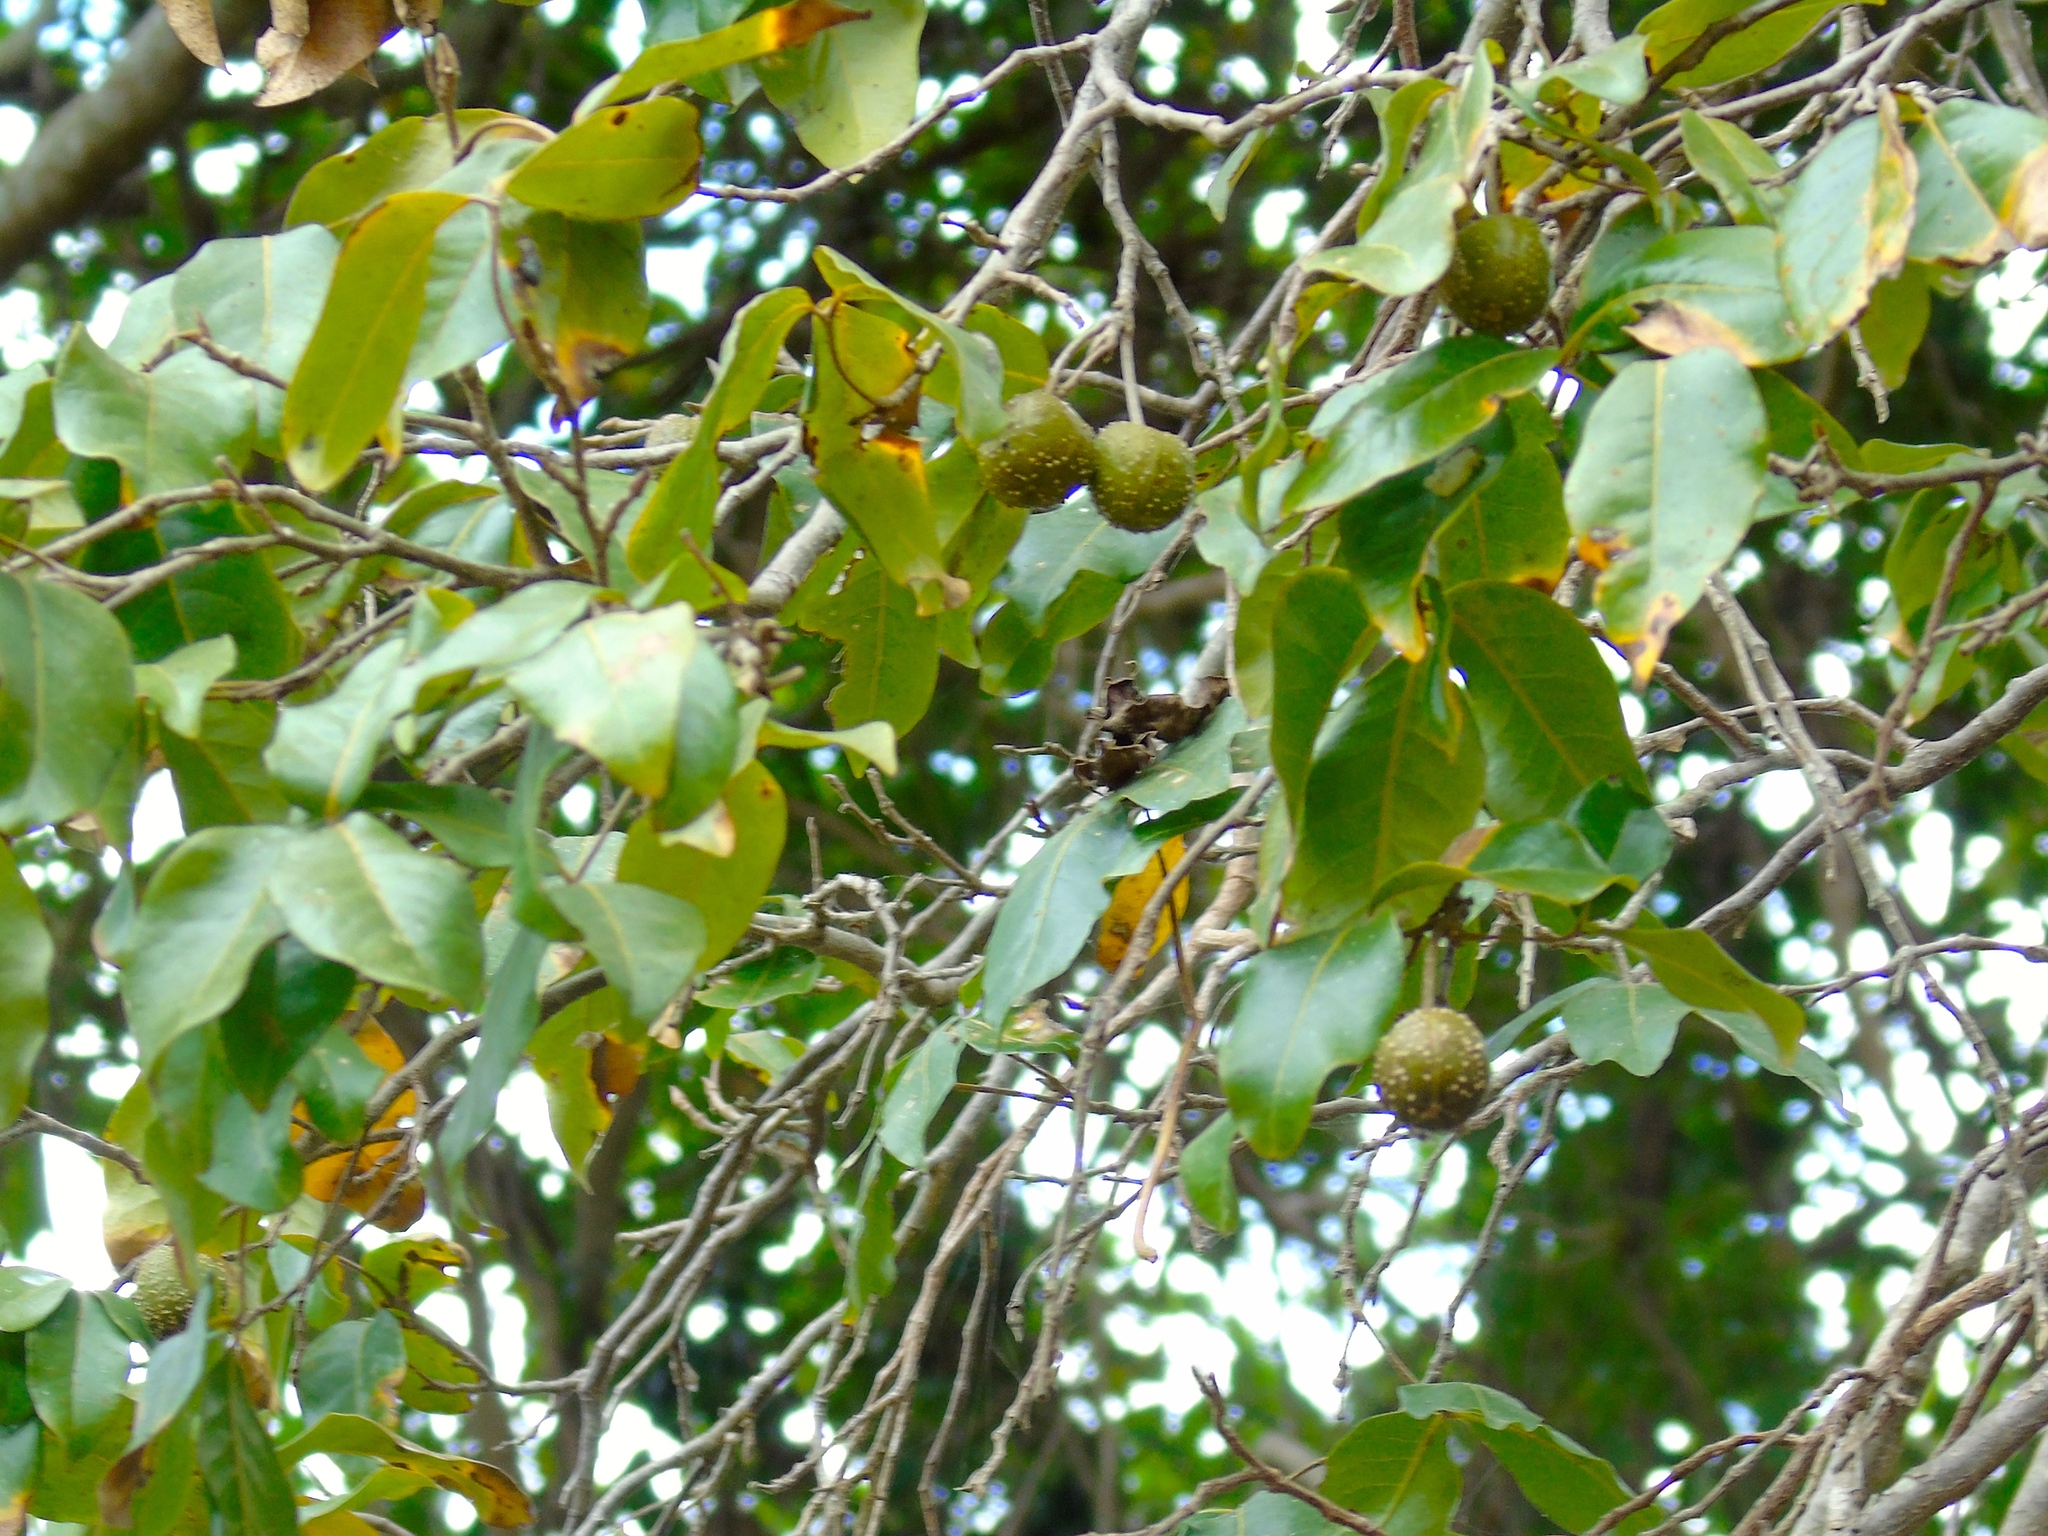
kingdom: Plantae
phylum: Tracheophyta
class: Magnoliopsida
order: Malpighiales
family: Picrodendraceae
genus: Piranhea
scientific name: Piranhea mexicana
